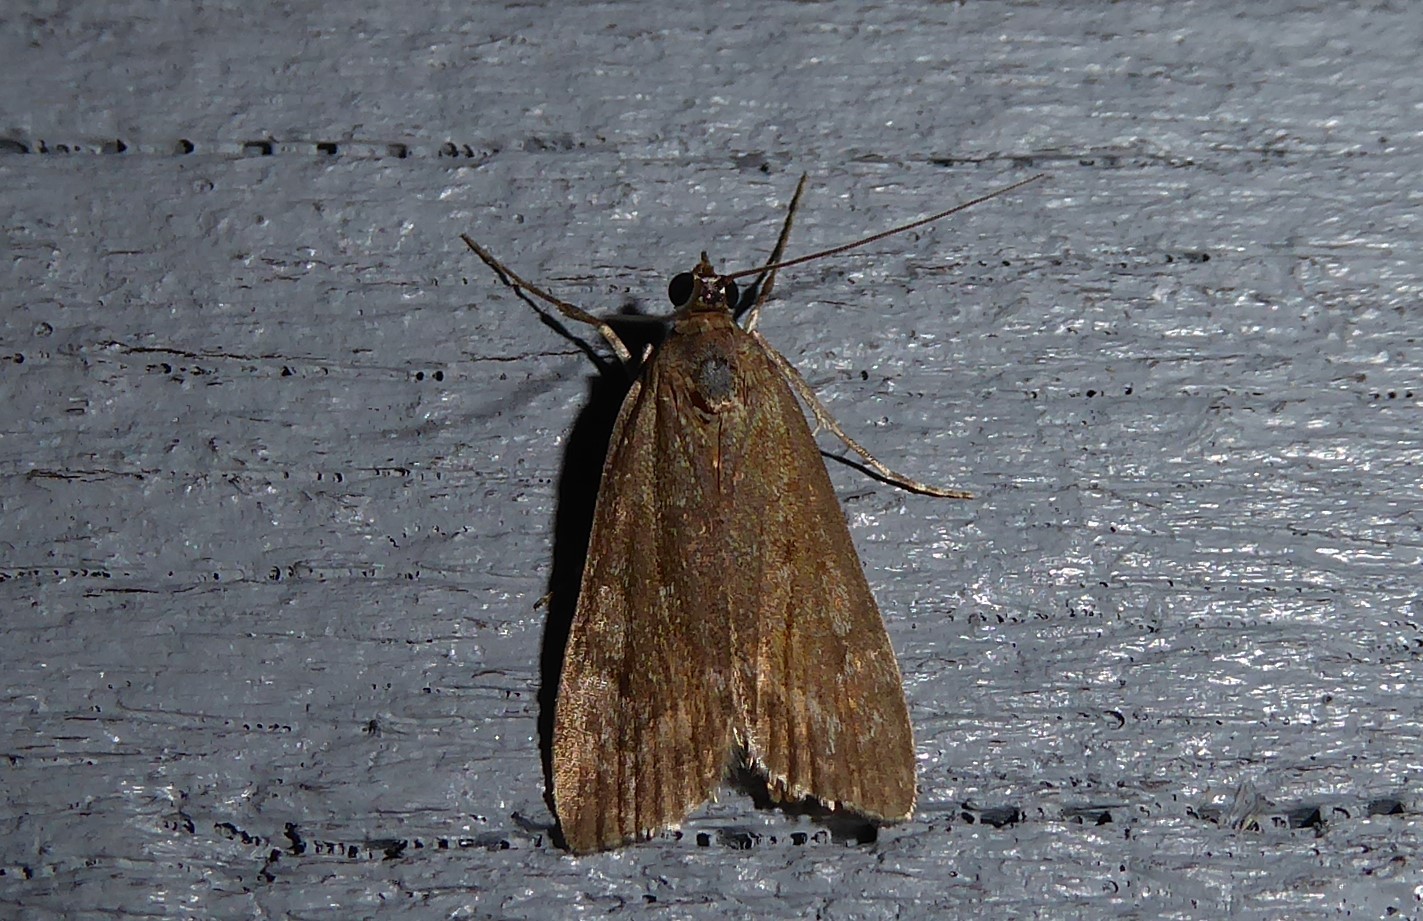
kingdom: Animalia
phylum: Arthropoda
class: Insecta
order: Lepidoptera
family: Crambidae
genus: Eudonia
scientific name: Eudonia submarginalis
